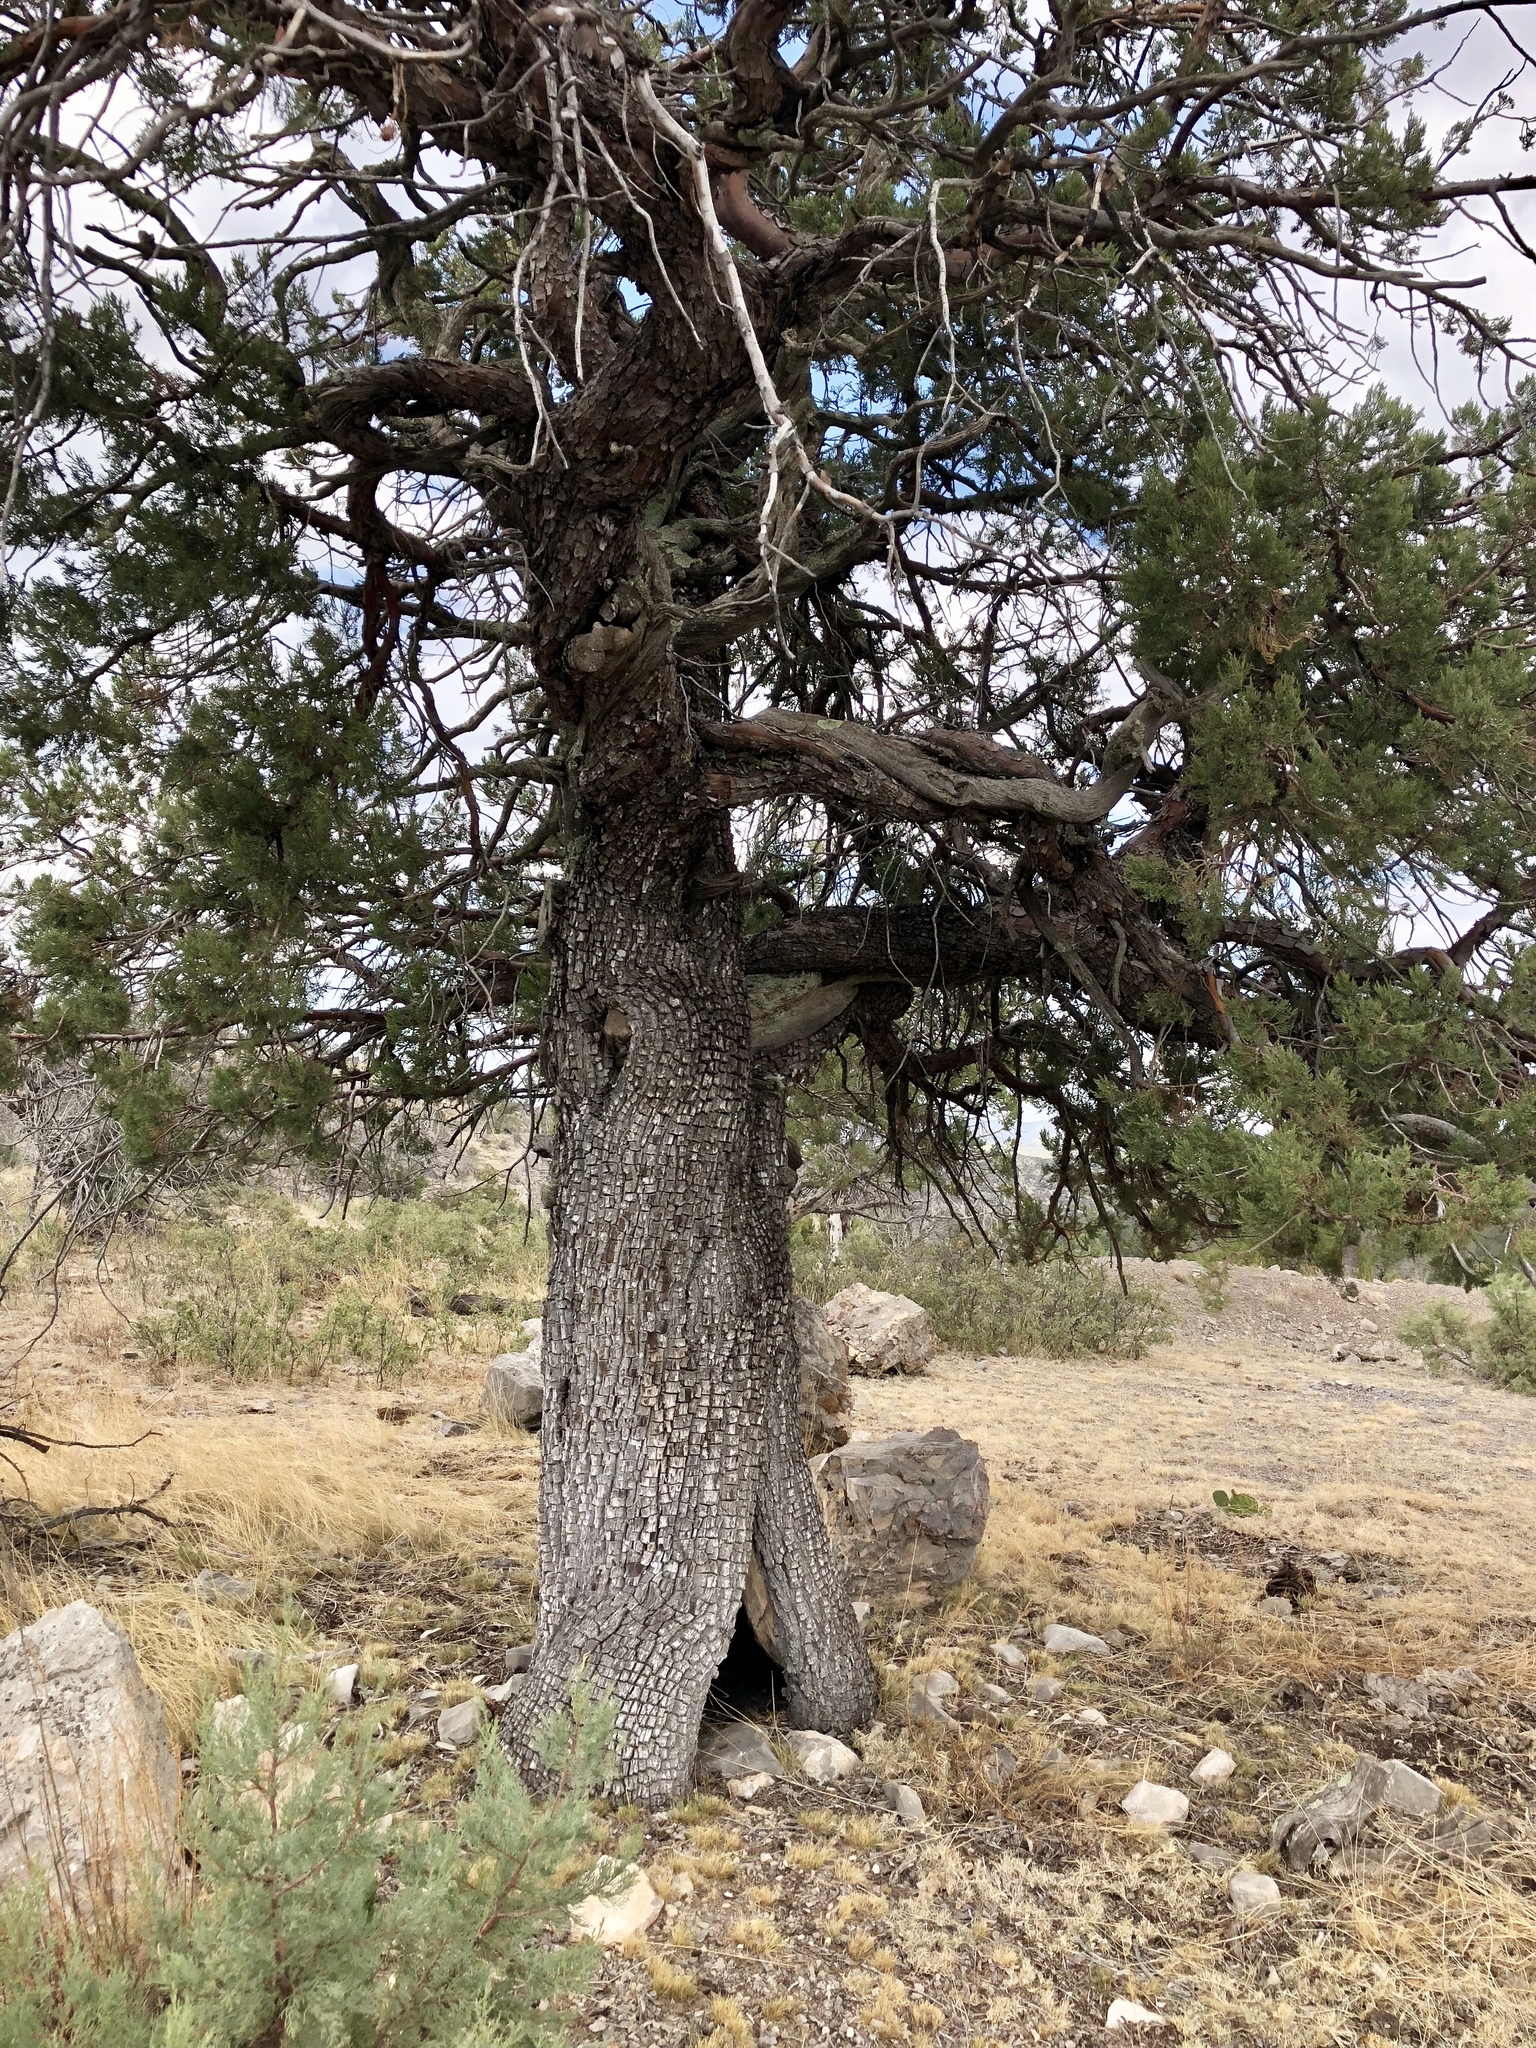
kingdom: Plantae
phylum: Tracheophyta
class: Pinopsida
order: Pinales
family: Cupressaceae
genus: Juniperus
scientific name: Juniperus deppeana
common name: Alligator juniper
